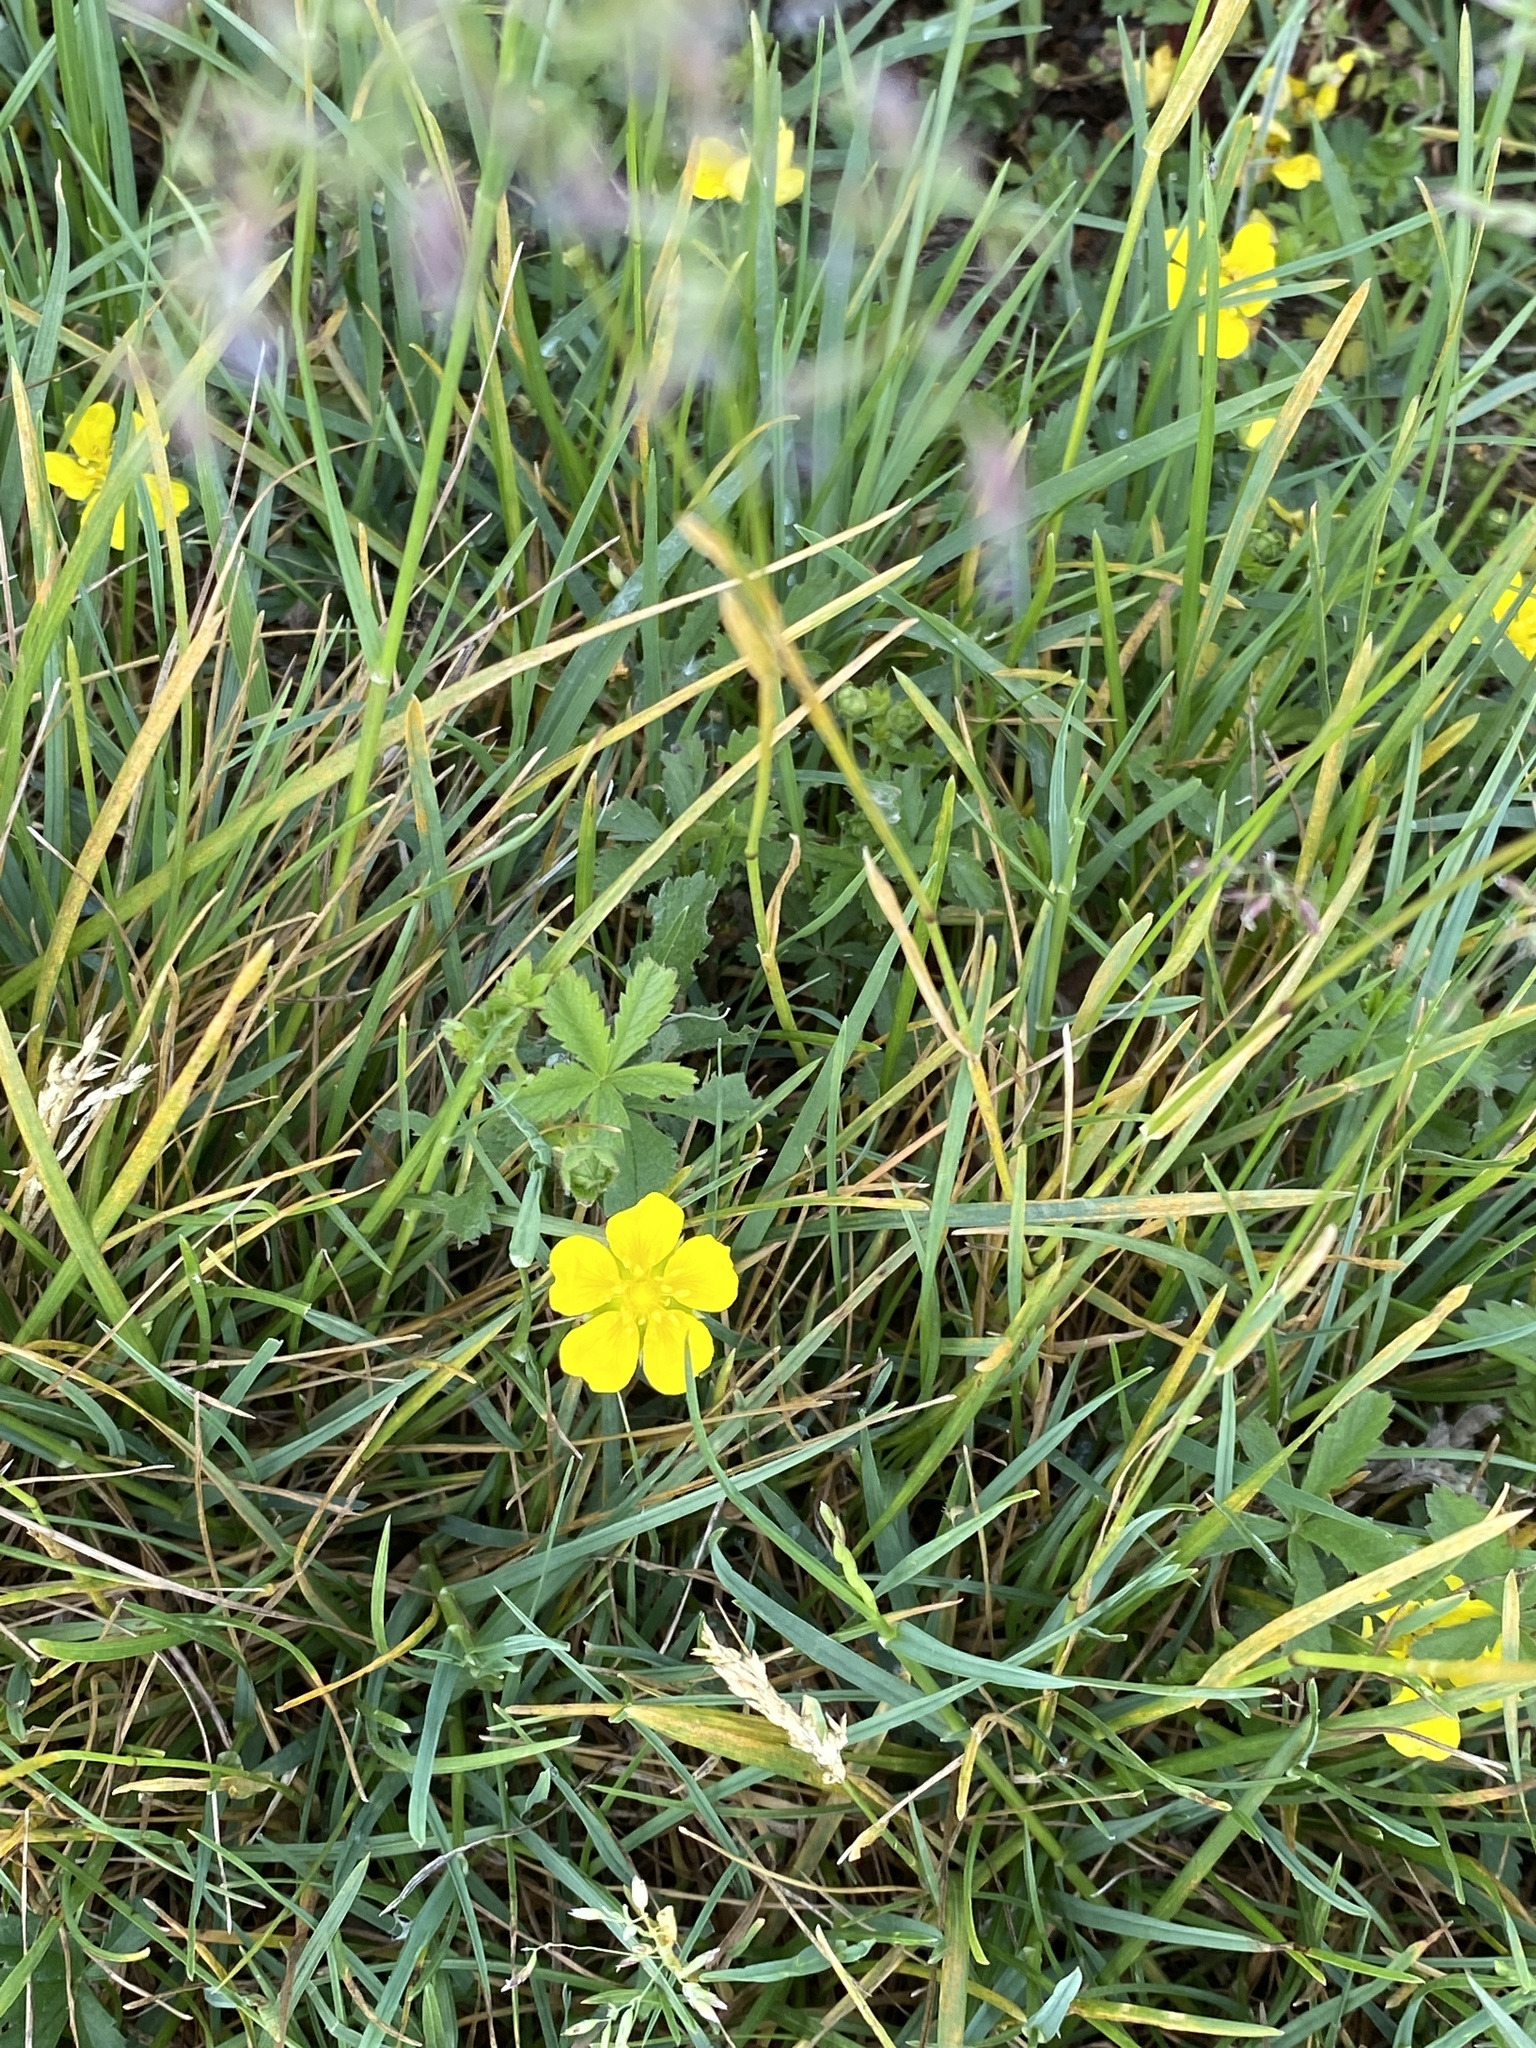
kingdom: Plantae
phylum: Tracheophyta
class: Magnoliopsida
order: Rosales
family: Rosaceae
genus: Potentilla
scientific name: Potentilla reptans
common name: Creeping cinquefoil
